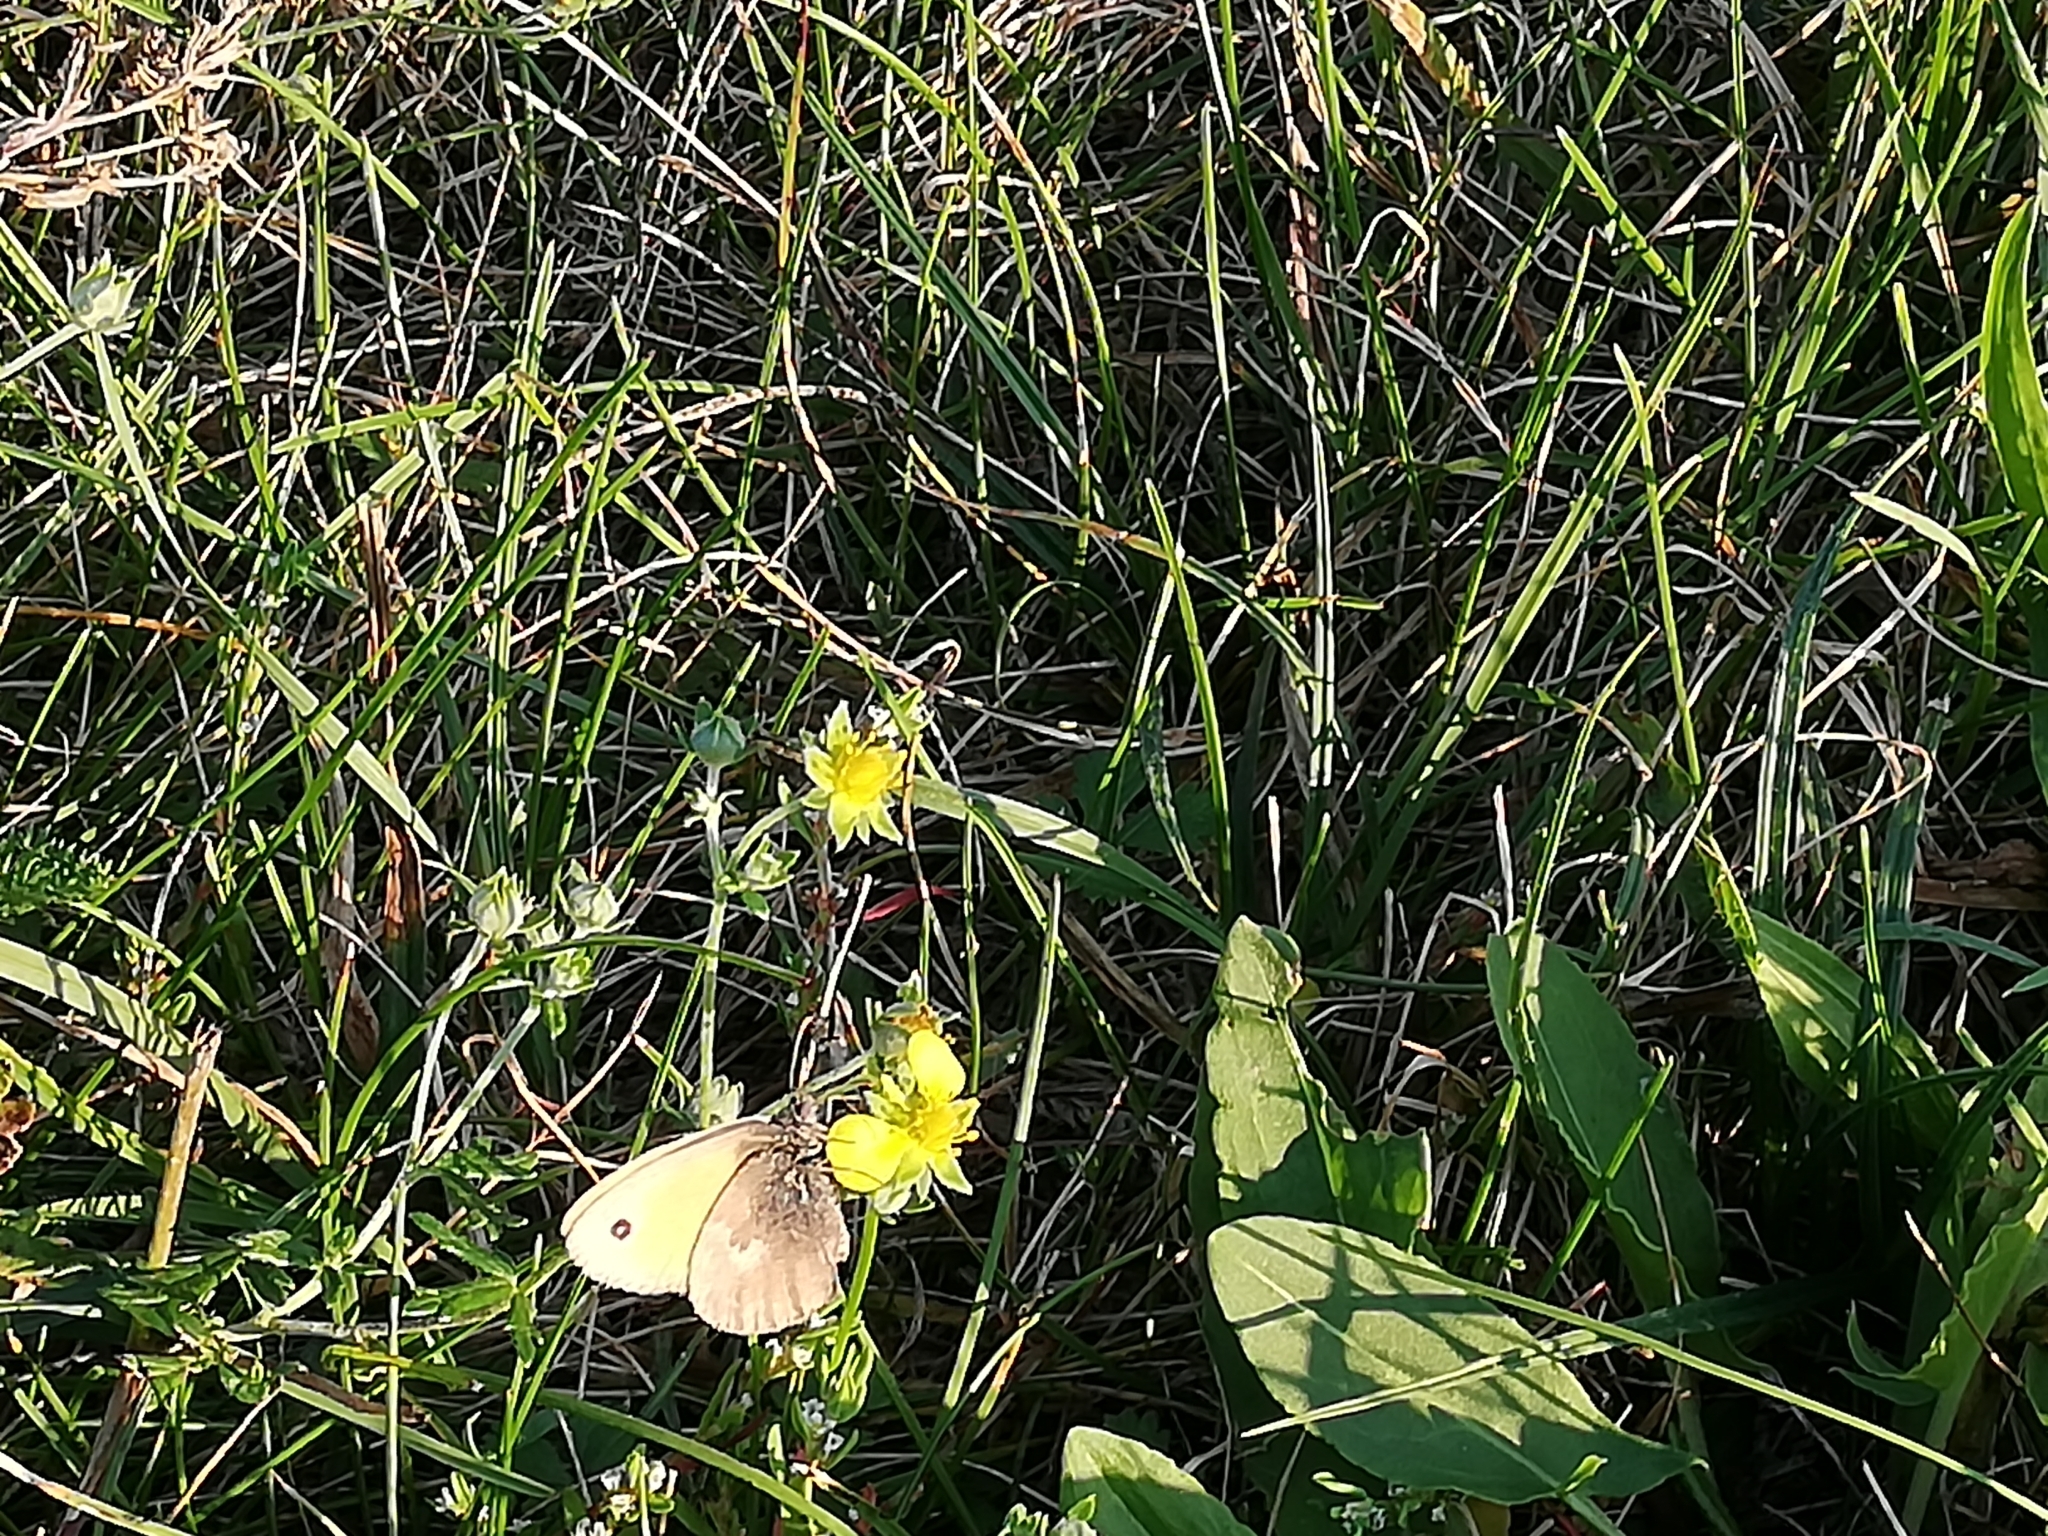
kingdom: Animalia
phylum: Arthropoda
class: Insecta
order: Lepidoptera
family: Nymphalidae
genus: Maniola
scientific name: Maniola jurtina
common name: Meadow brown
